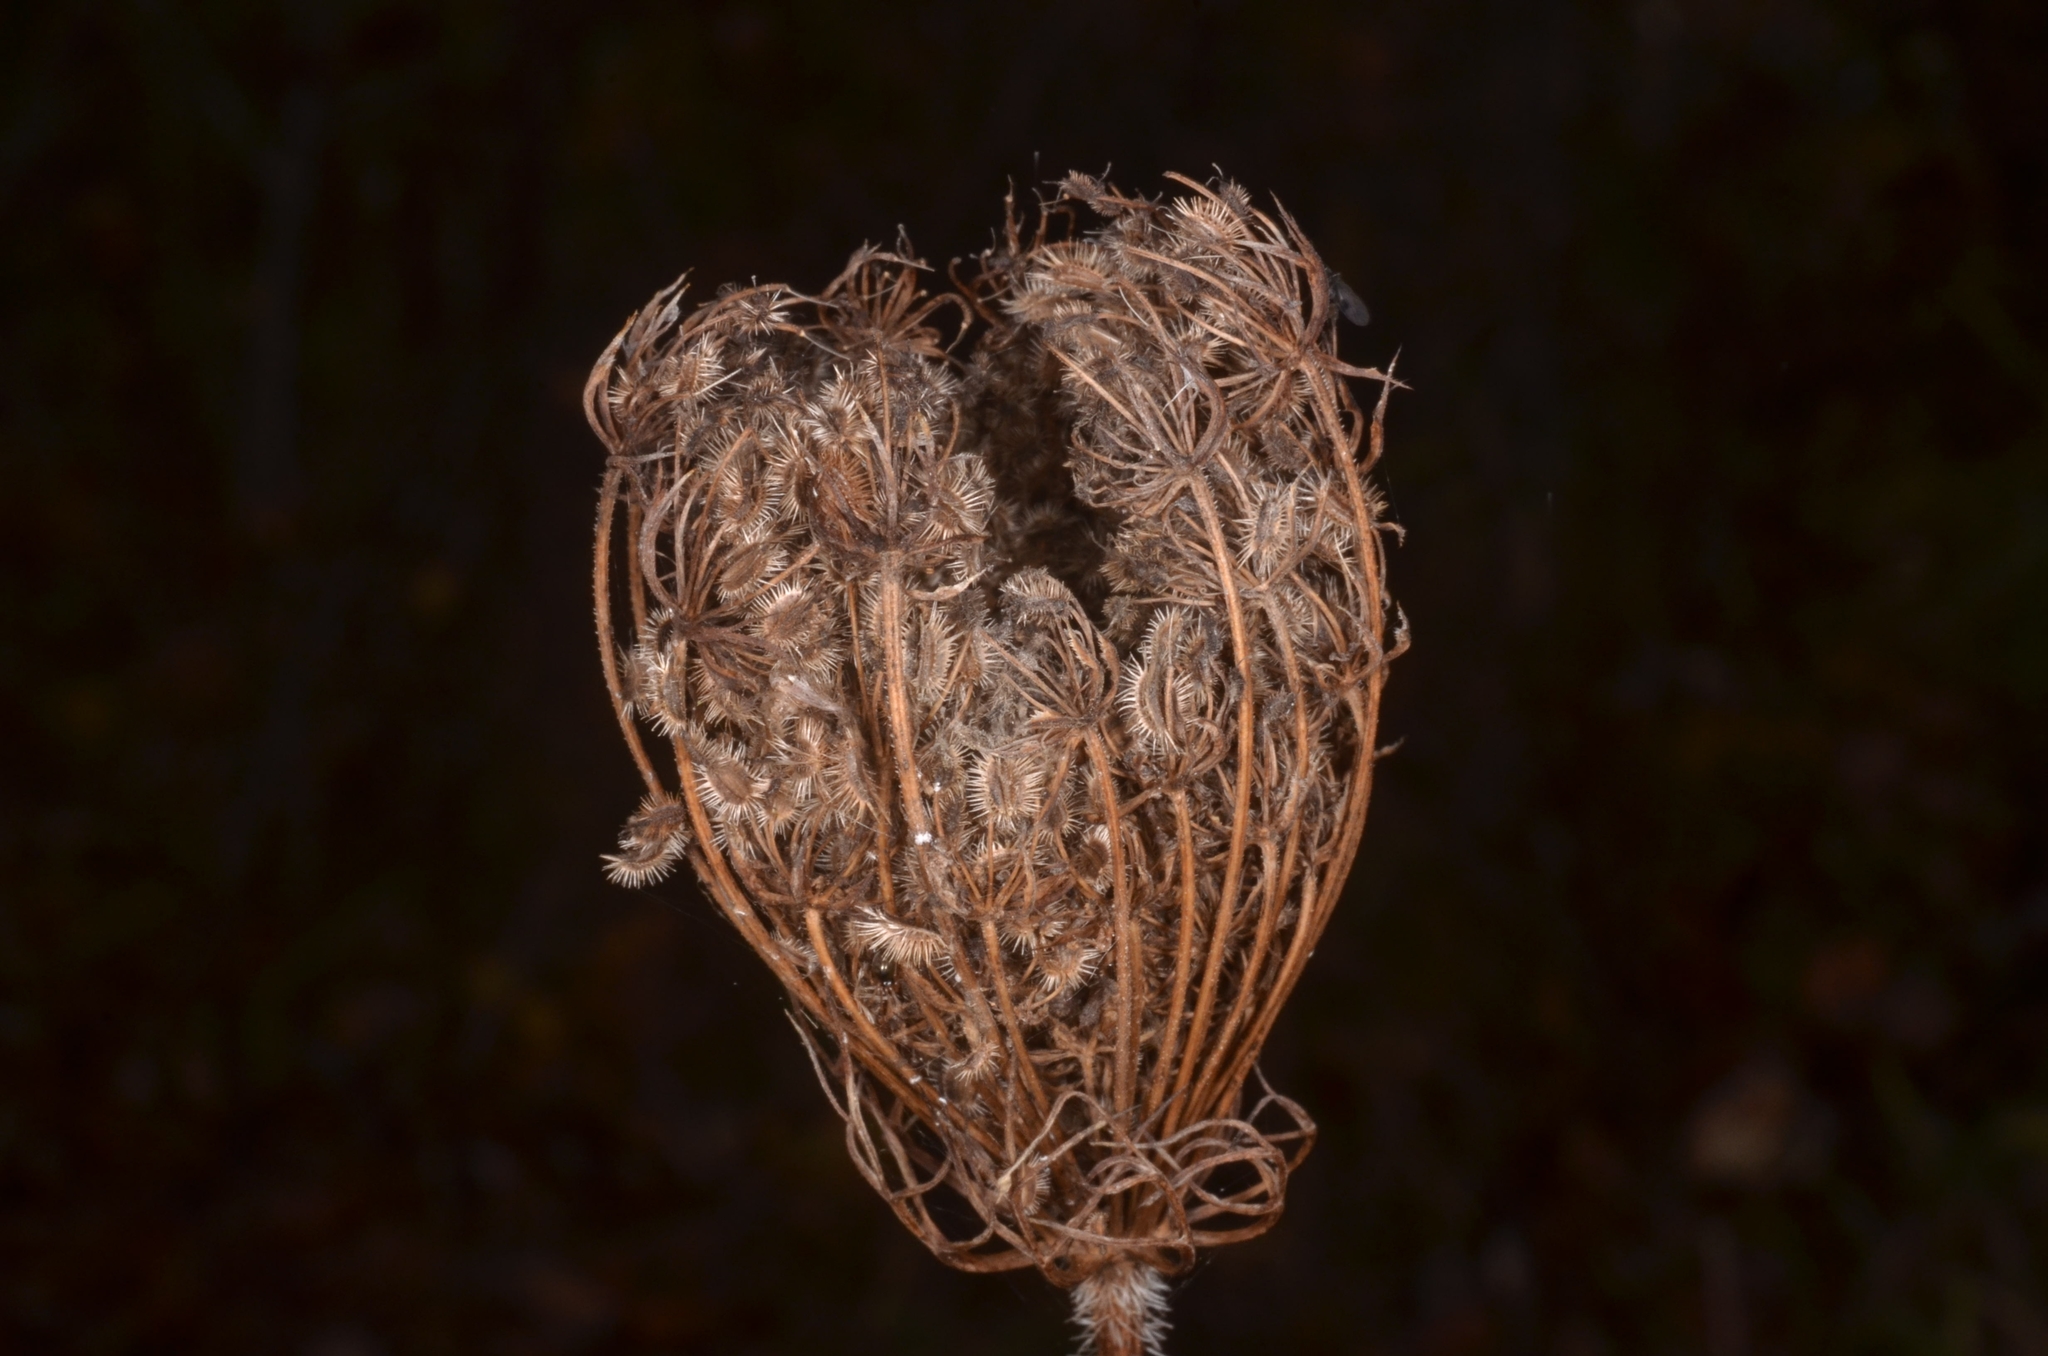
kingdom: Plantae
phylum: Tracheophyta
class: Magnoliopsida
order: Apiales
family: Apiaceae
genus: Daucus
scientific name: Daucus carota
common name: Wild carrot
